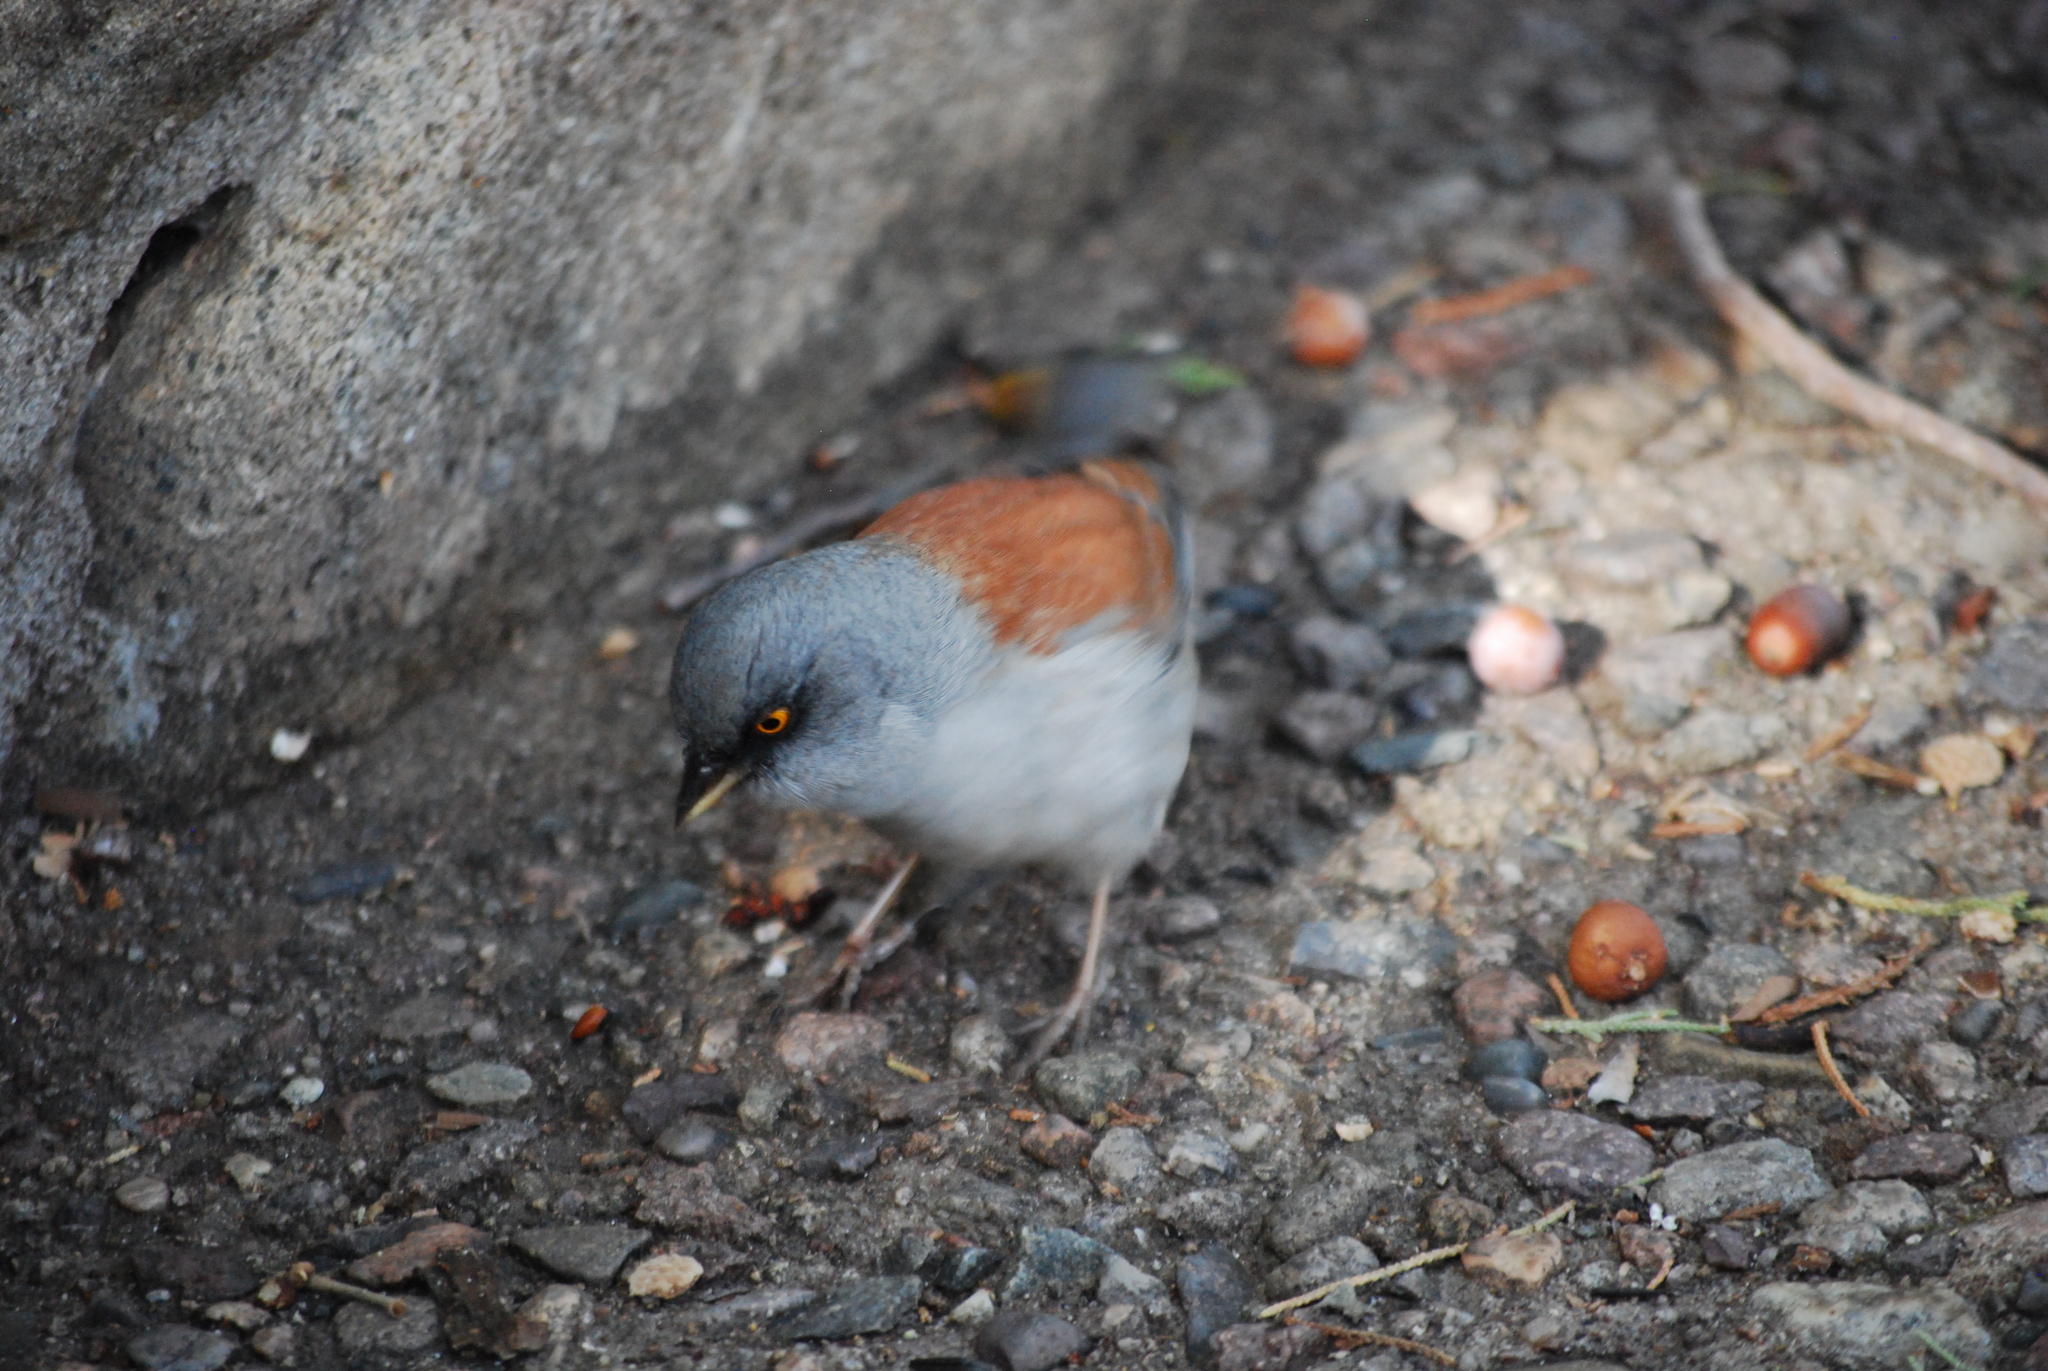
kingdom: Animalia
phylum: Chordata
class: Aves
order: Passeriformes
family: Passerellidae
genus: Junco
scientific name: Junco phaeonotus
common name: Yellow-eyed junco
